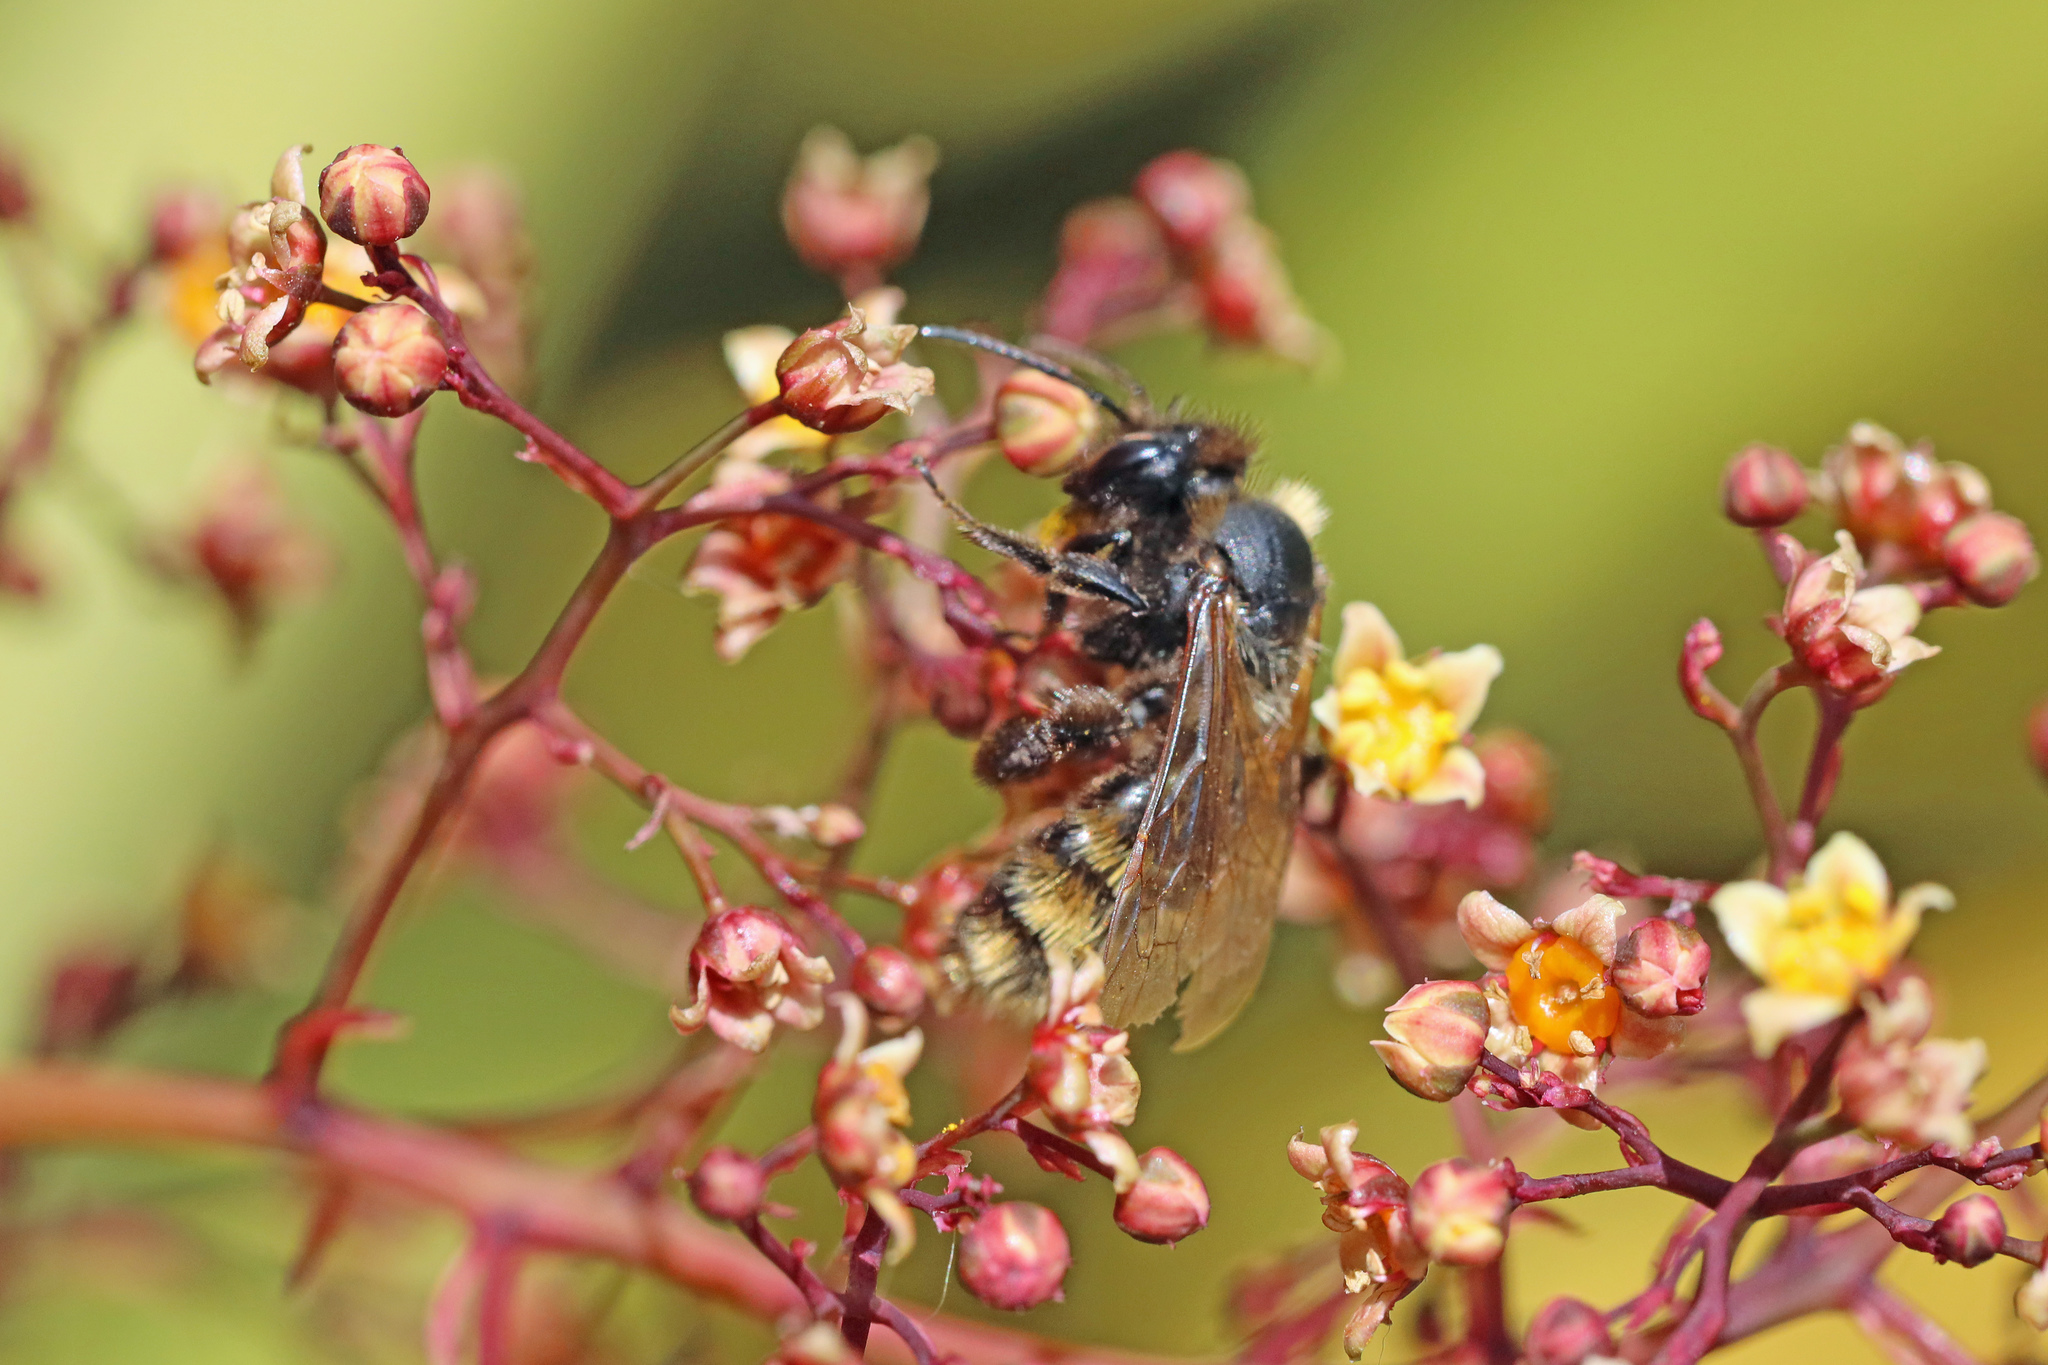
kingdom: Animalia
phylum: Arthropoda
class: Insecta
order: Hymenoptera
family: Andrenidae
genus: Andrena
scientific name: Andrena fulva
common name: Tawny mining bee
